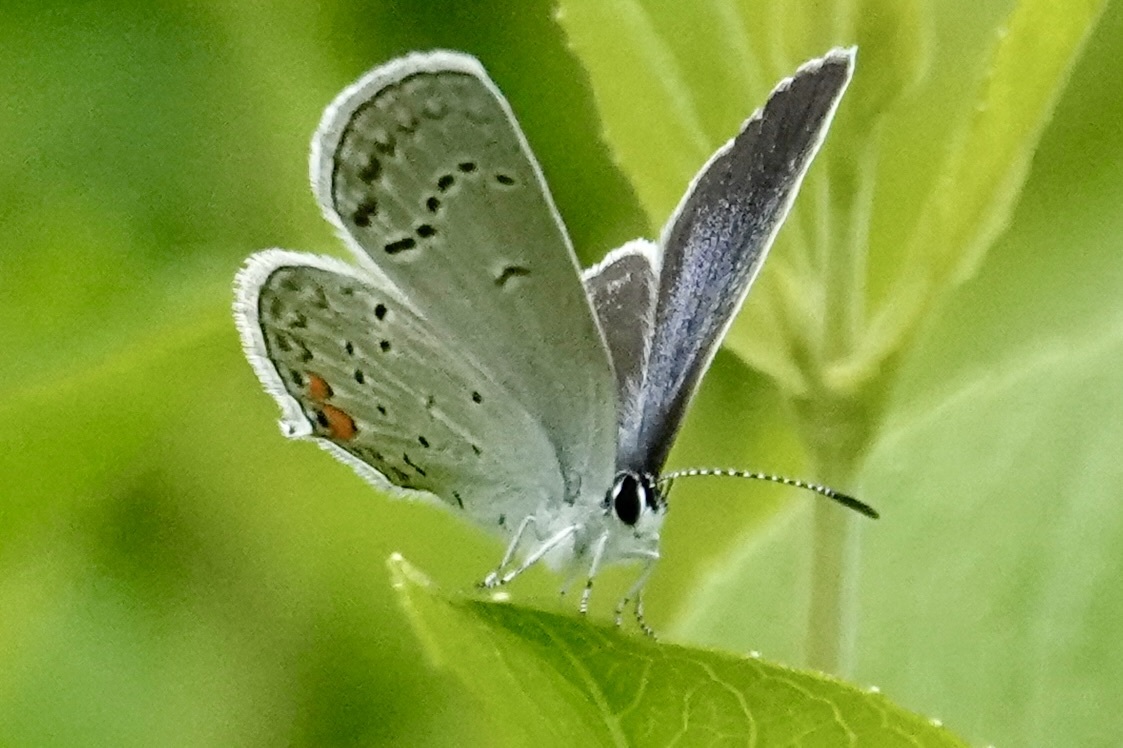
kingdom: Animalia
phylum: Arthropoda
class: Insecta
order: Lepidoptera
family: Lycaenidae
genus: Elkalyce
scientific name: Elkalyce comyntas
